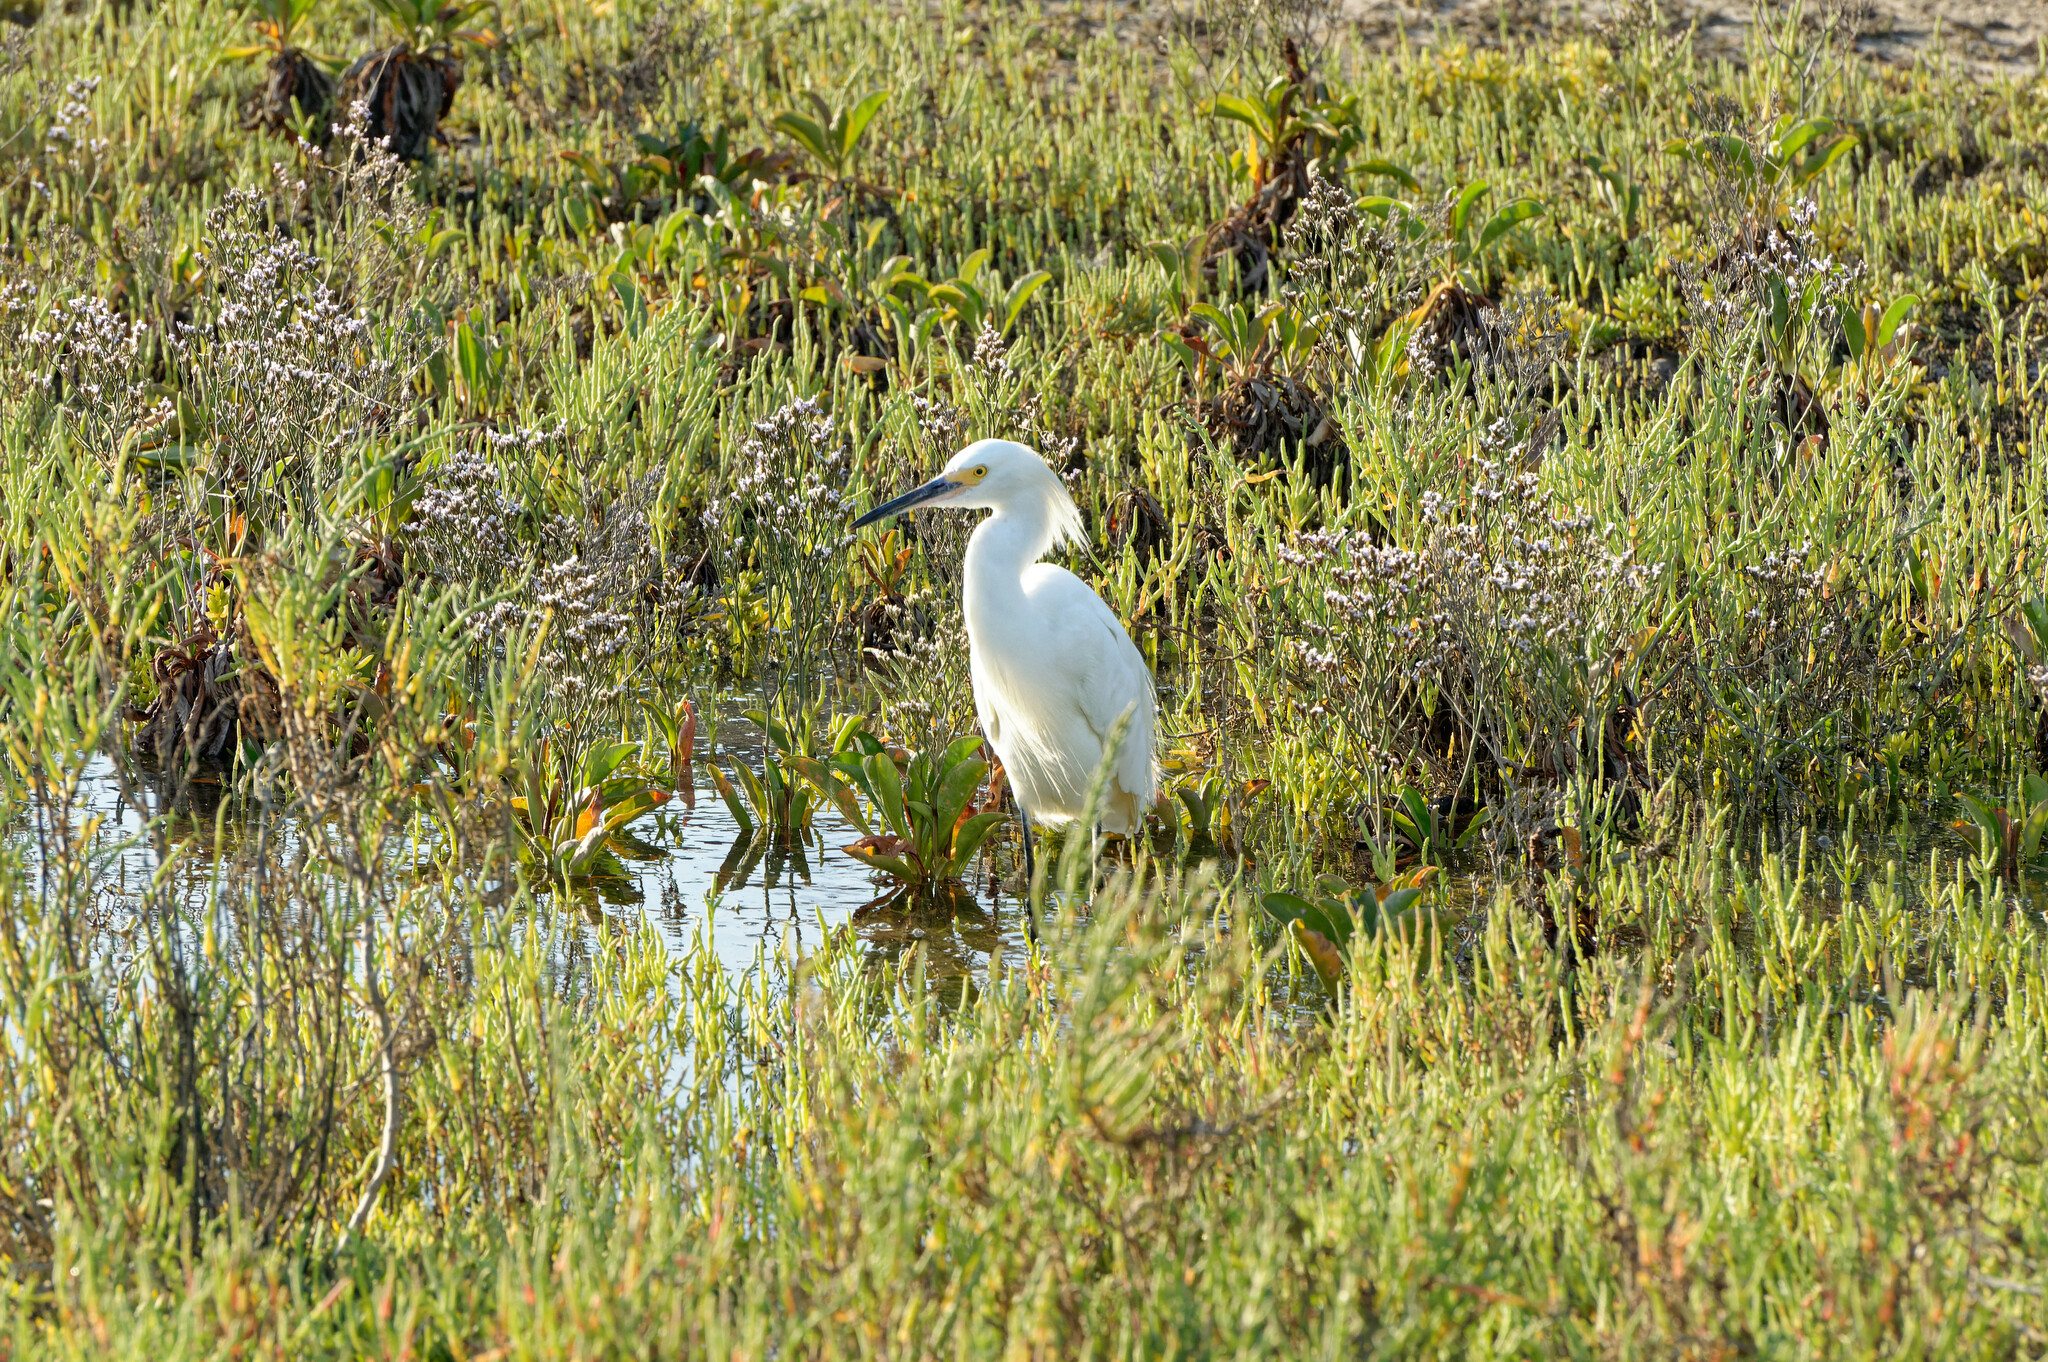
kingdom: Animalia
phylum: Chordata
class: Aves
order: Pelecaniformes
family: Ardeidae
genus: Egretta
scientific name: Egretta thula
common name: Snowy egret
